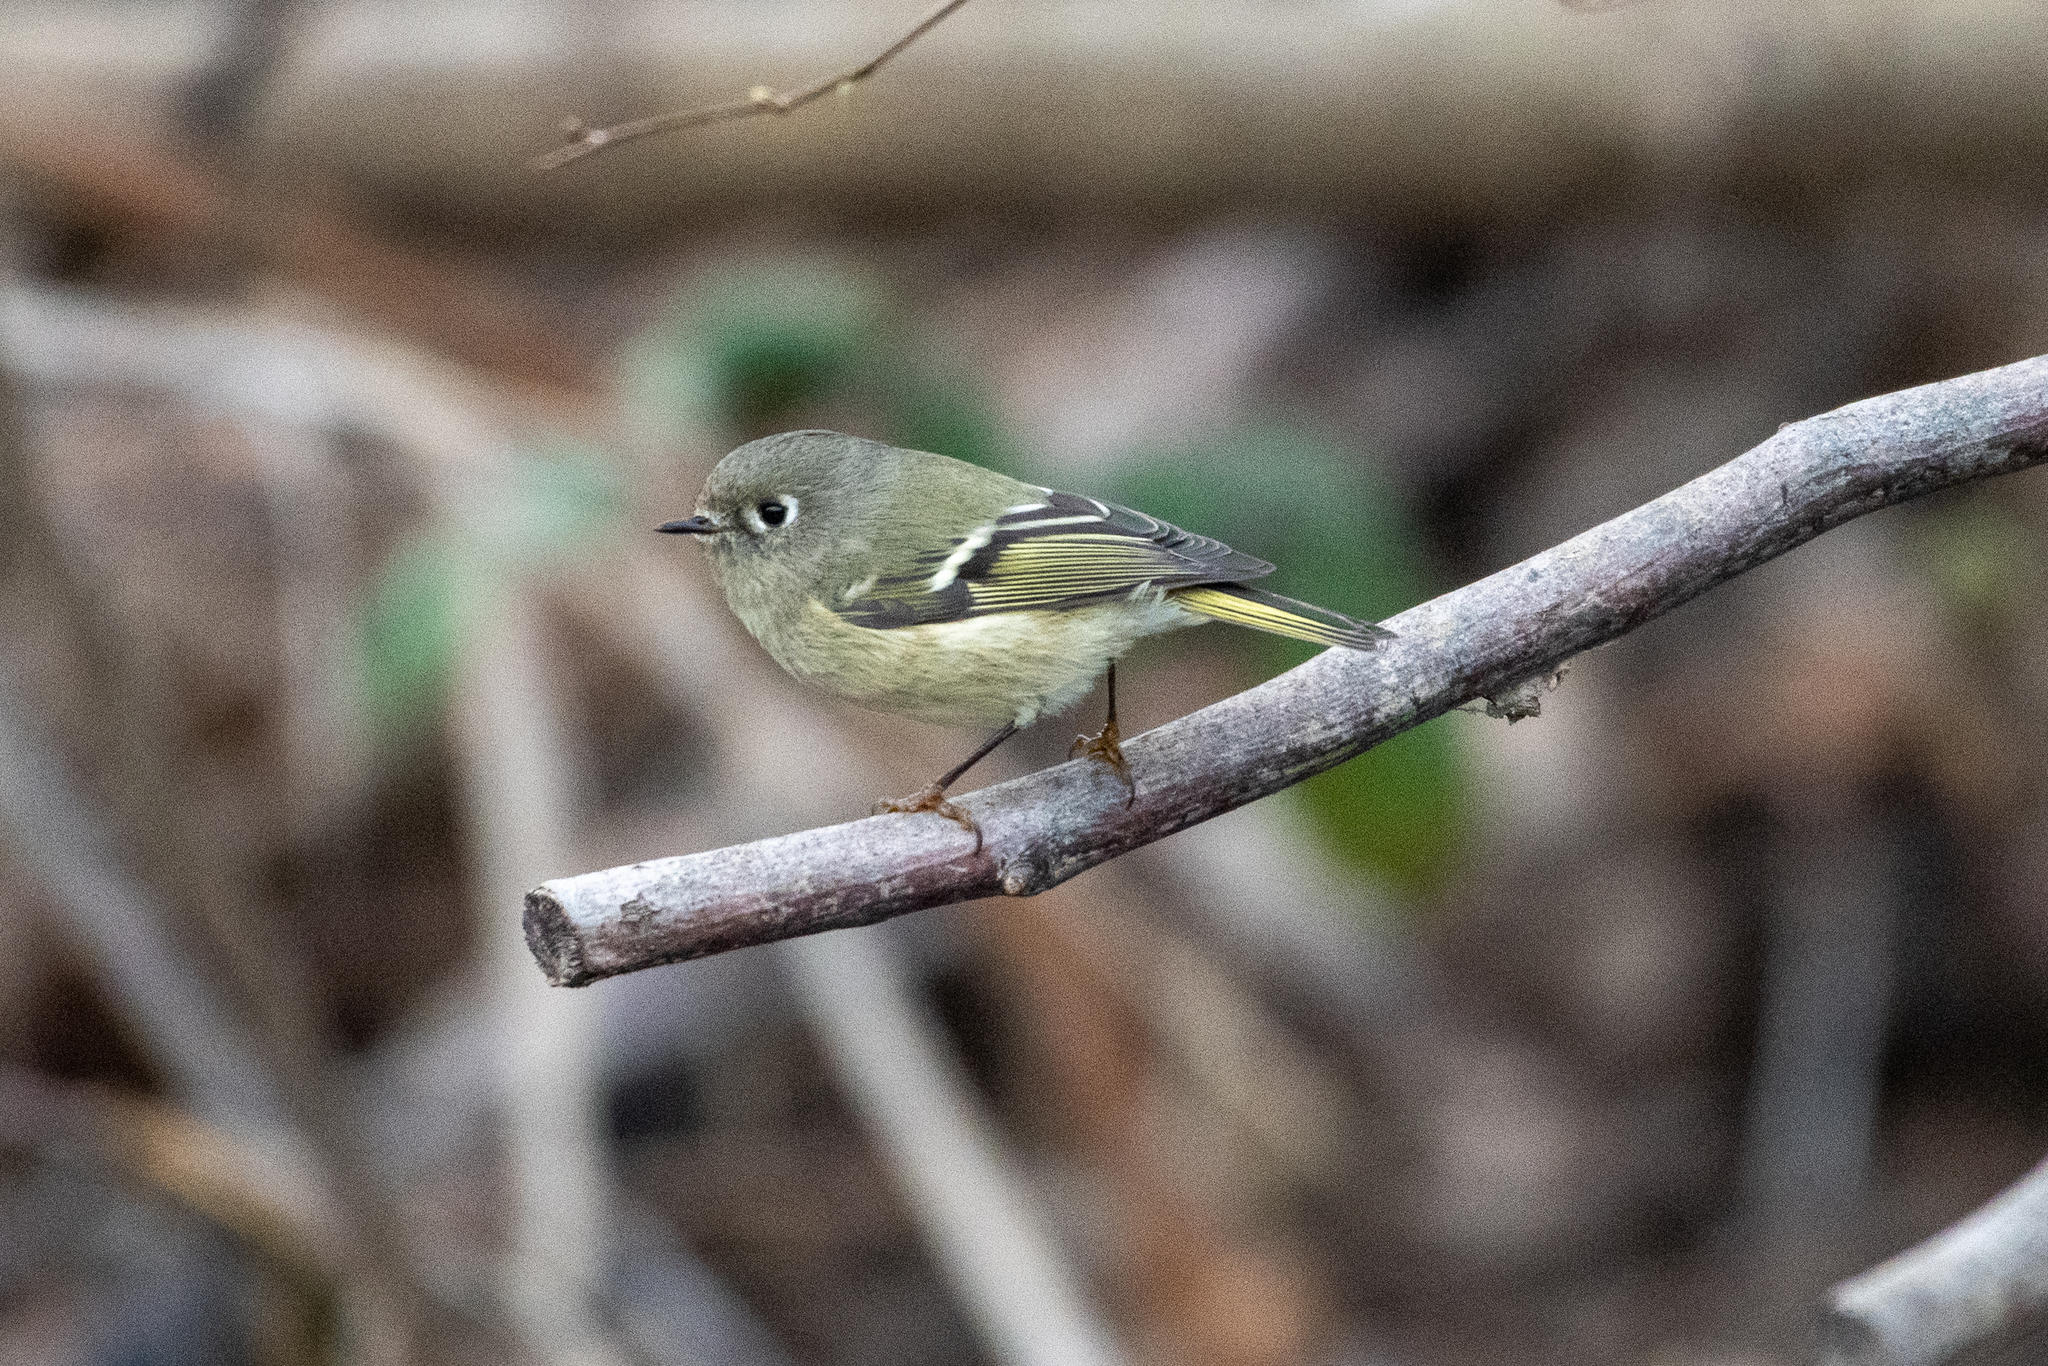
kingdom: Animalia
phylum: Chordata
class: Aves
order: Passeriformes
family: Regulidae
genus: Regulus
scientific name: Regulus calendula
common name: Ruby-crowned kinglet
